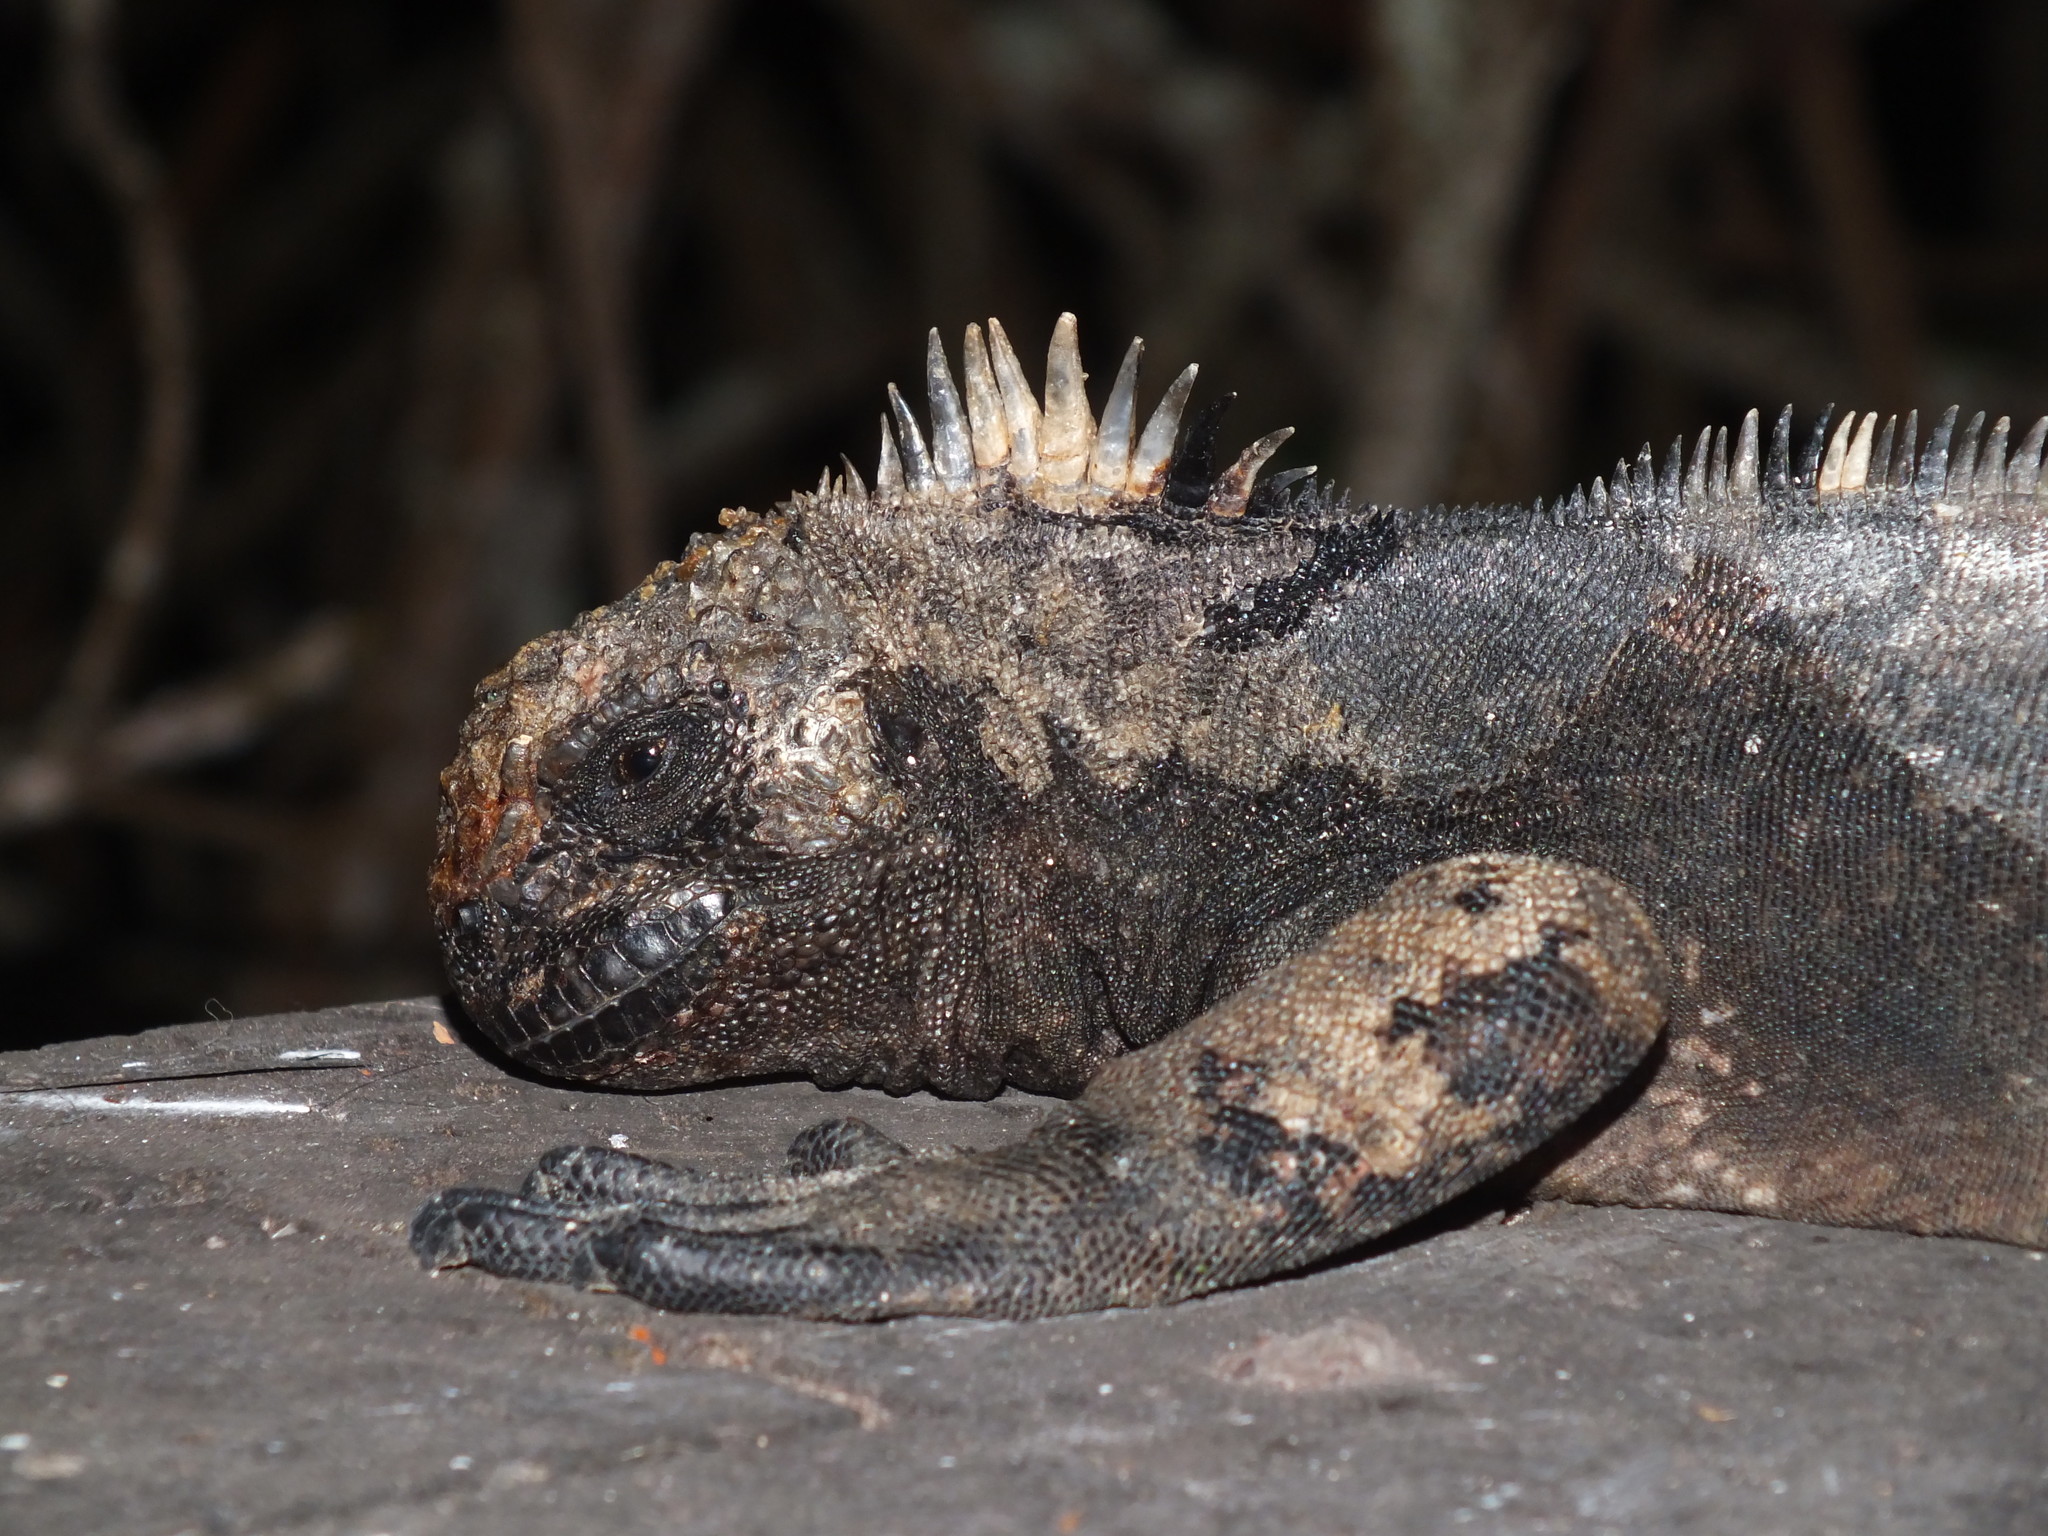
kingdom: Animalia
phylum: Chordata
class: Squamata
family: Iguanidae
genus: Amblyrhynchus
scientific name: Amblyrhynchus cristatus
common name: Marine iguana
